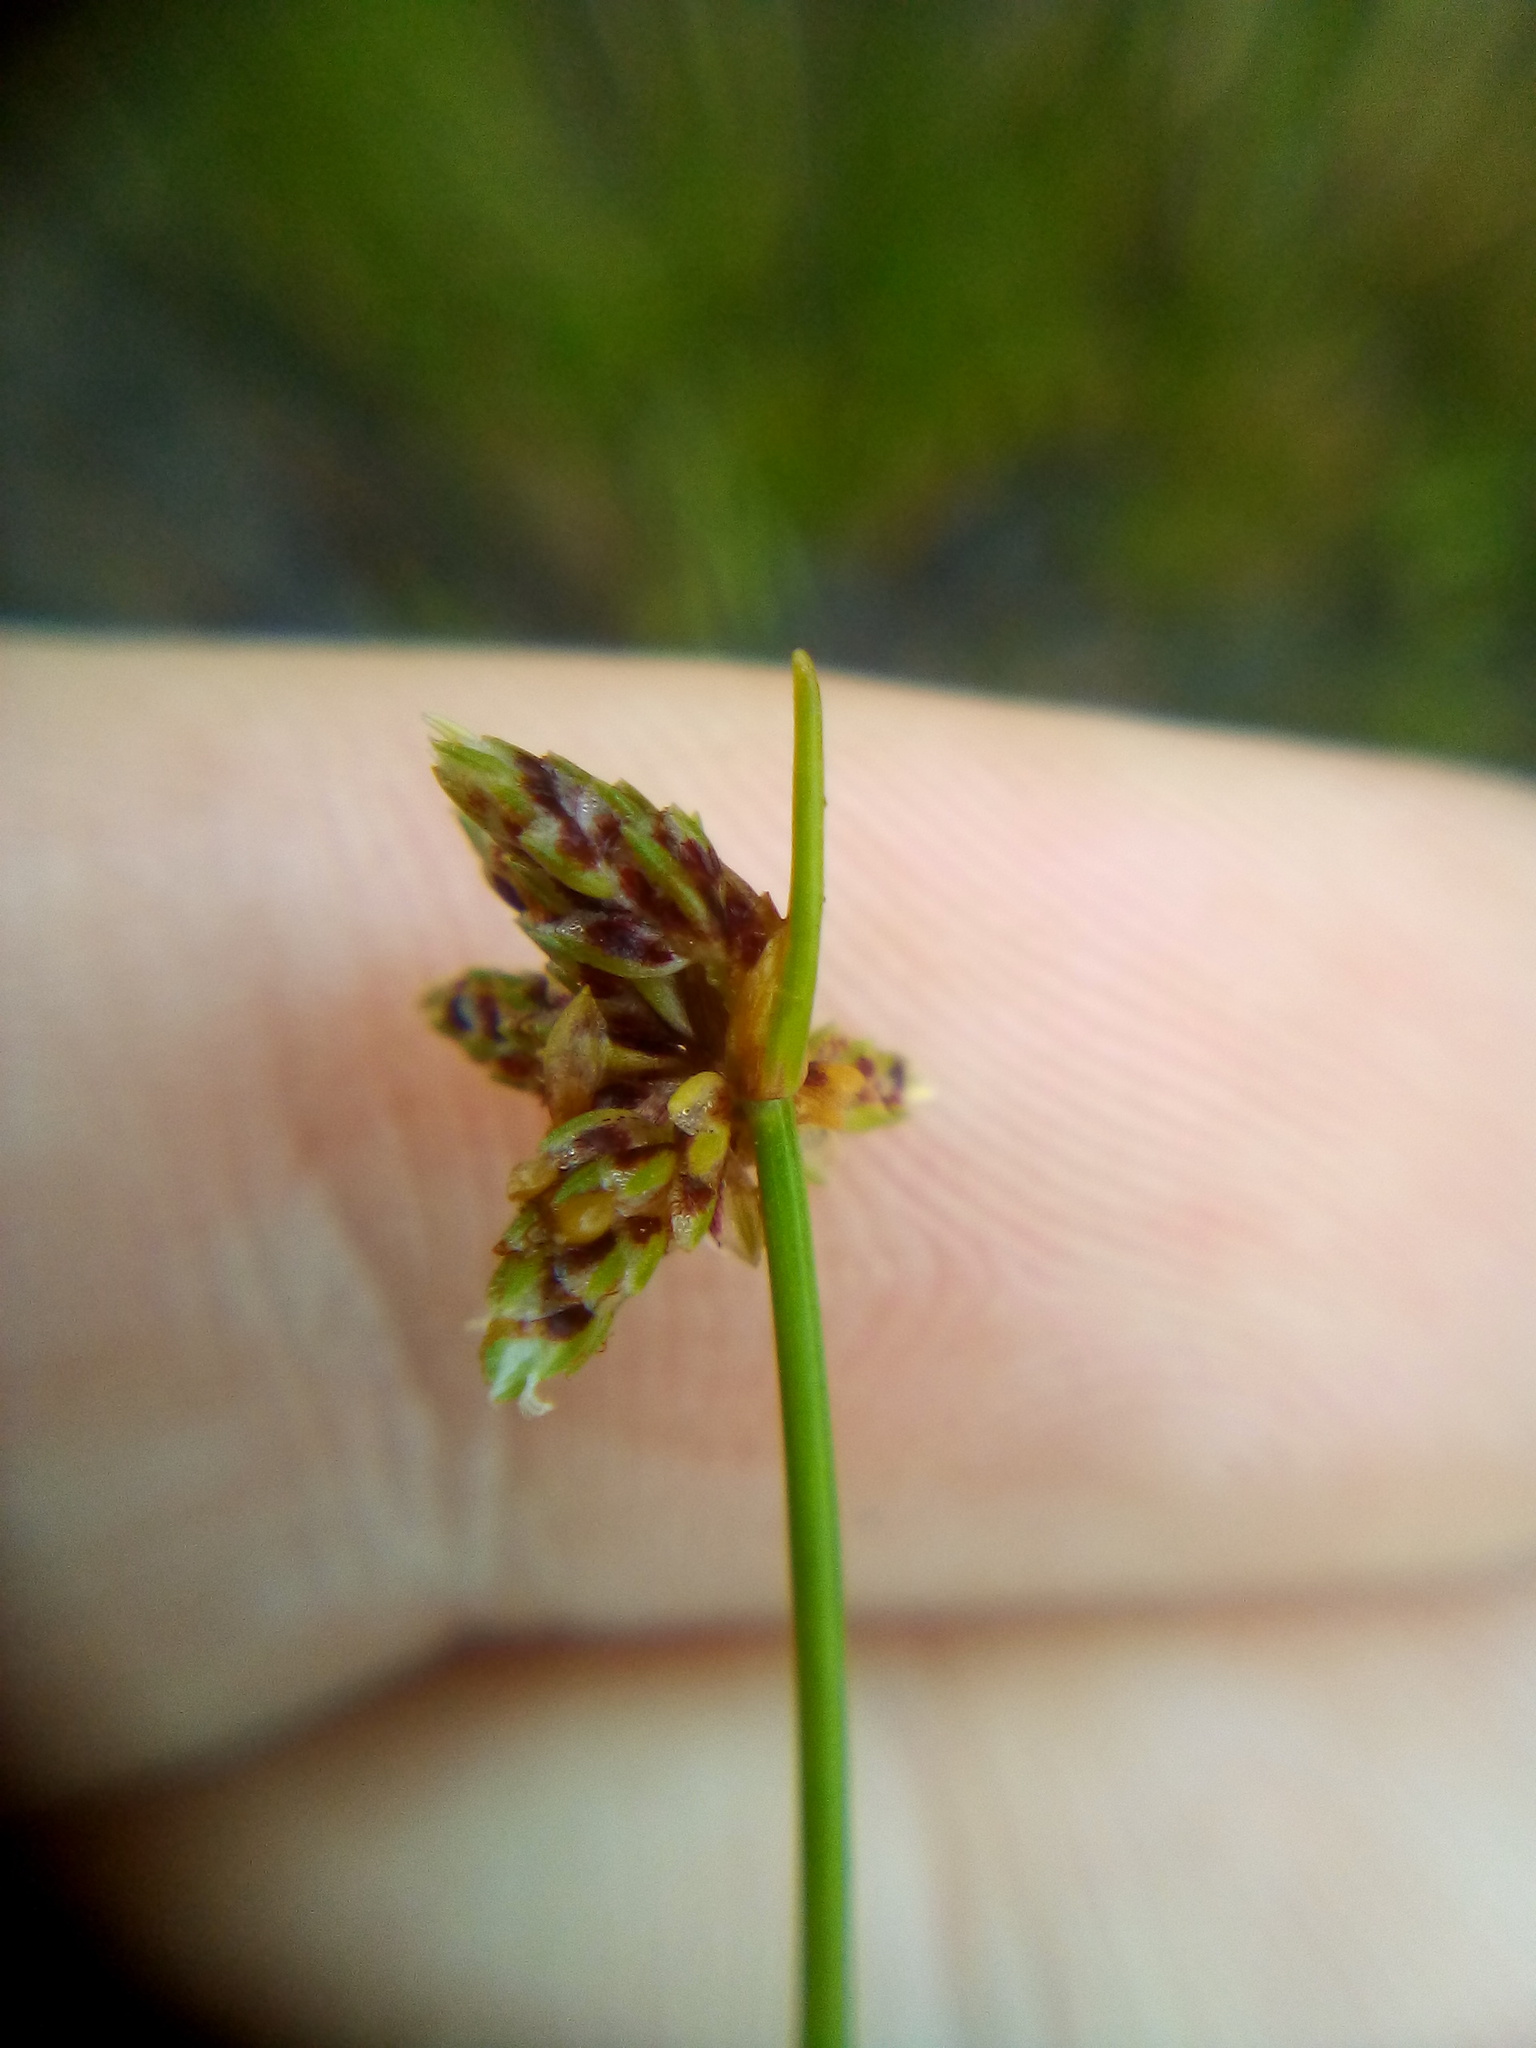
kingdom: Plantae
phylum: Tracheophyta
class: Liliopsida
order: Poales
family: Cyperaceae
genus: Isolepis
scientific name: Isolepis inundata
